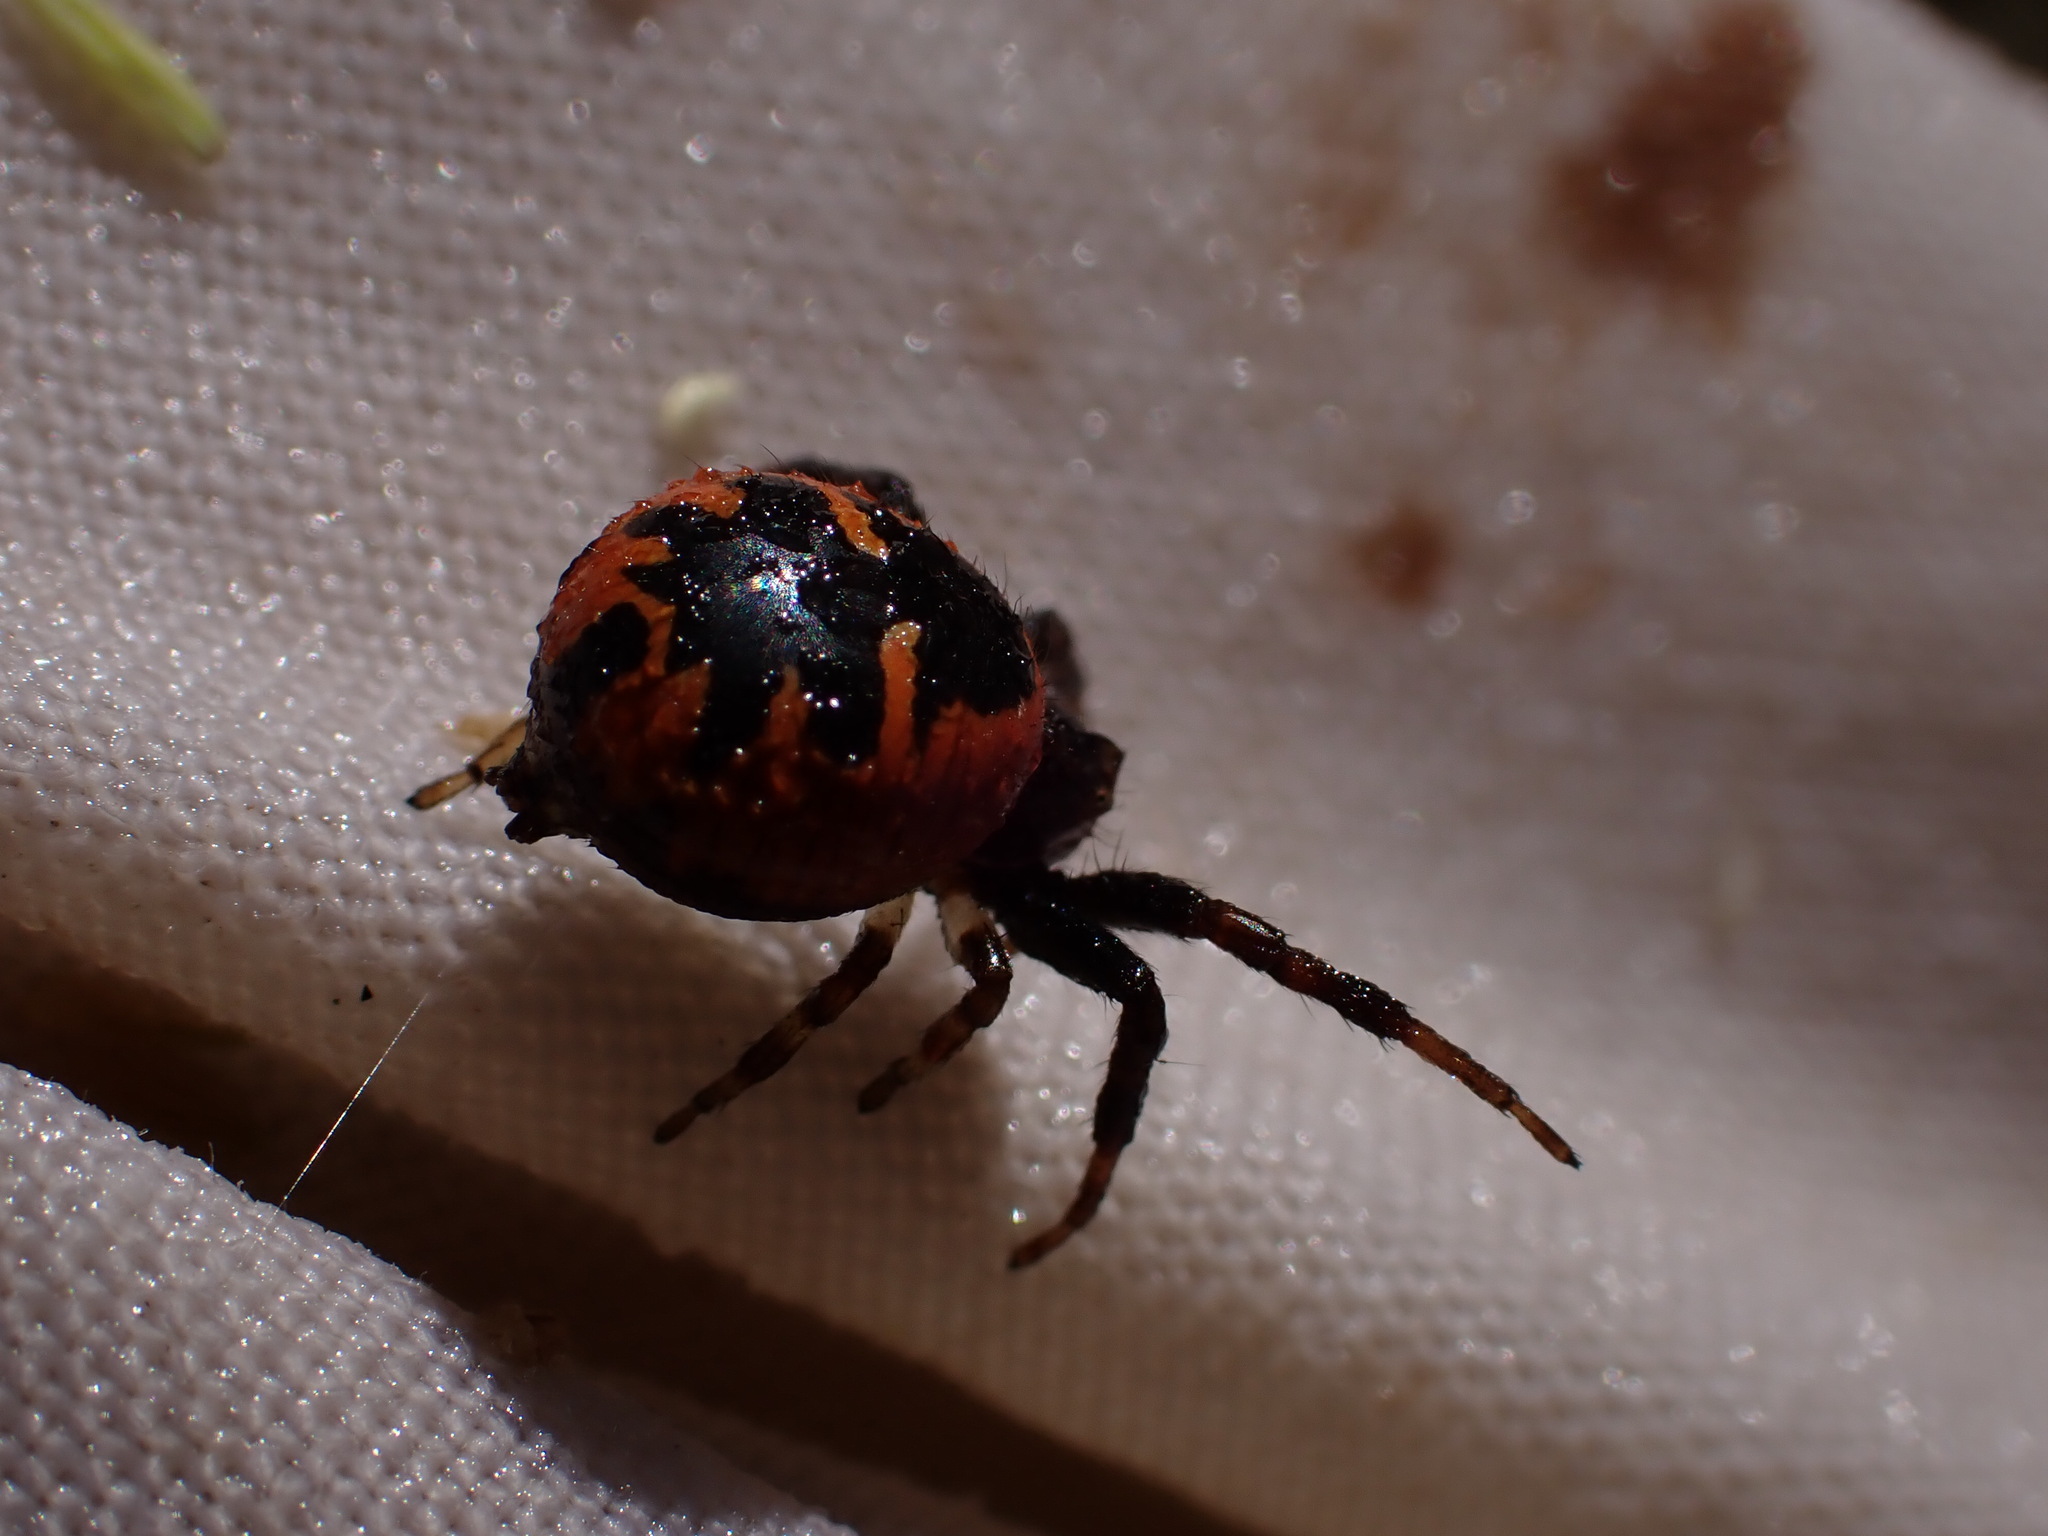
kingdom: Animalia
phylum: Arthropoda
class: Arachnida
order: Araneae
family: Thomisidae
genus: Synema
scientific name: Synema globosum
